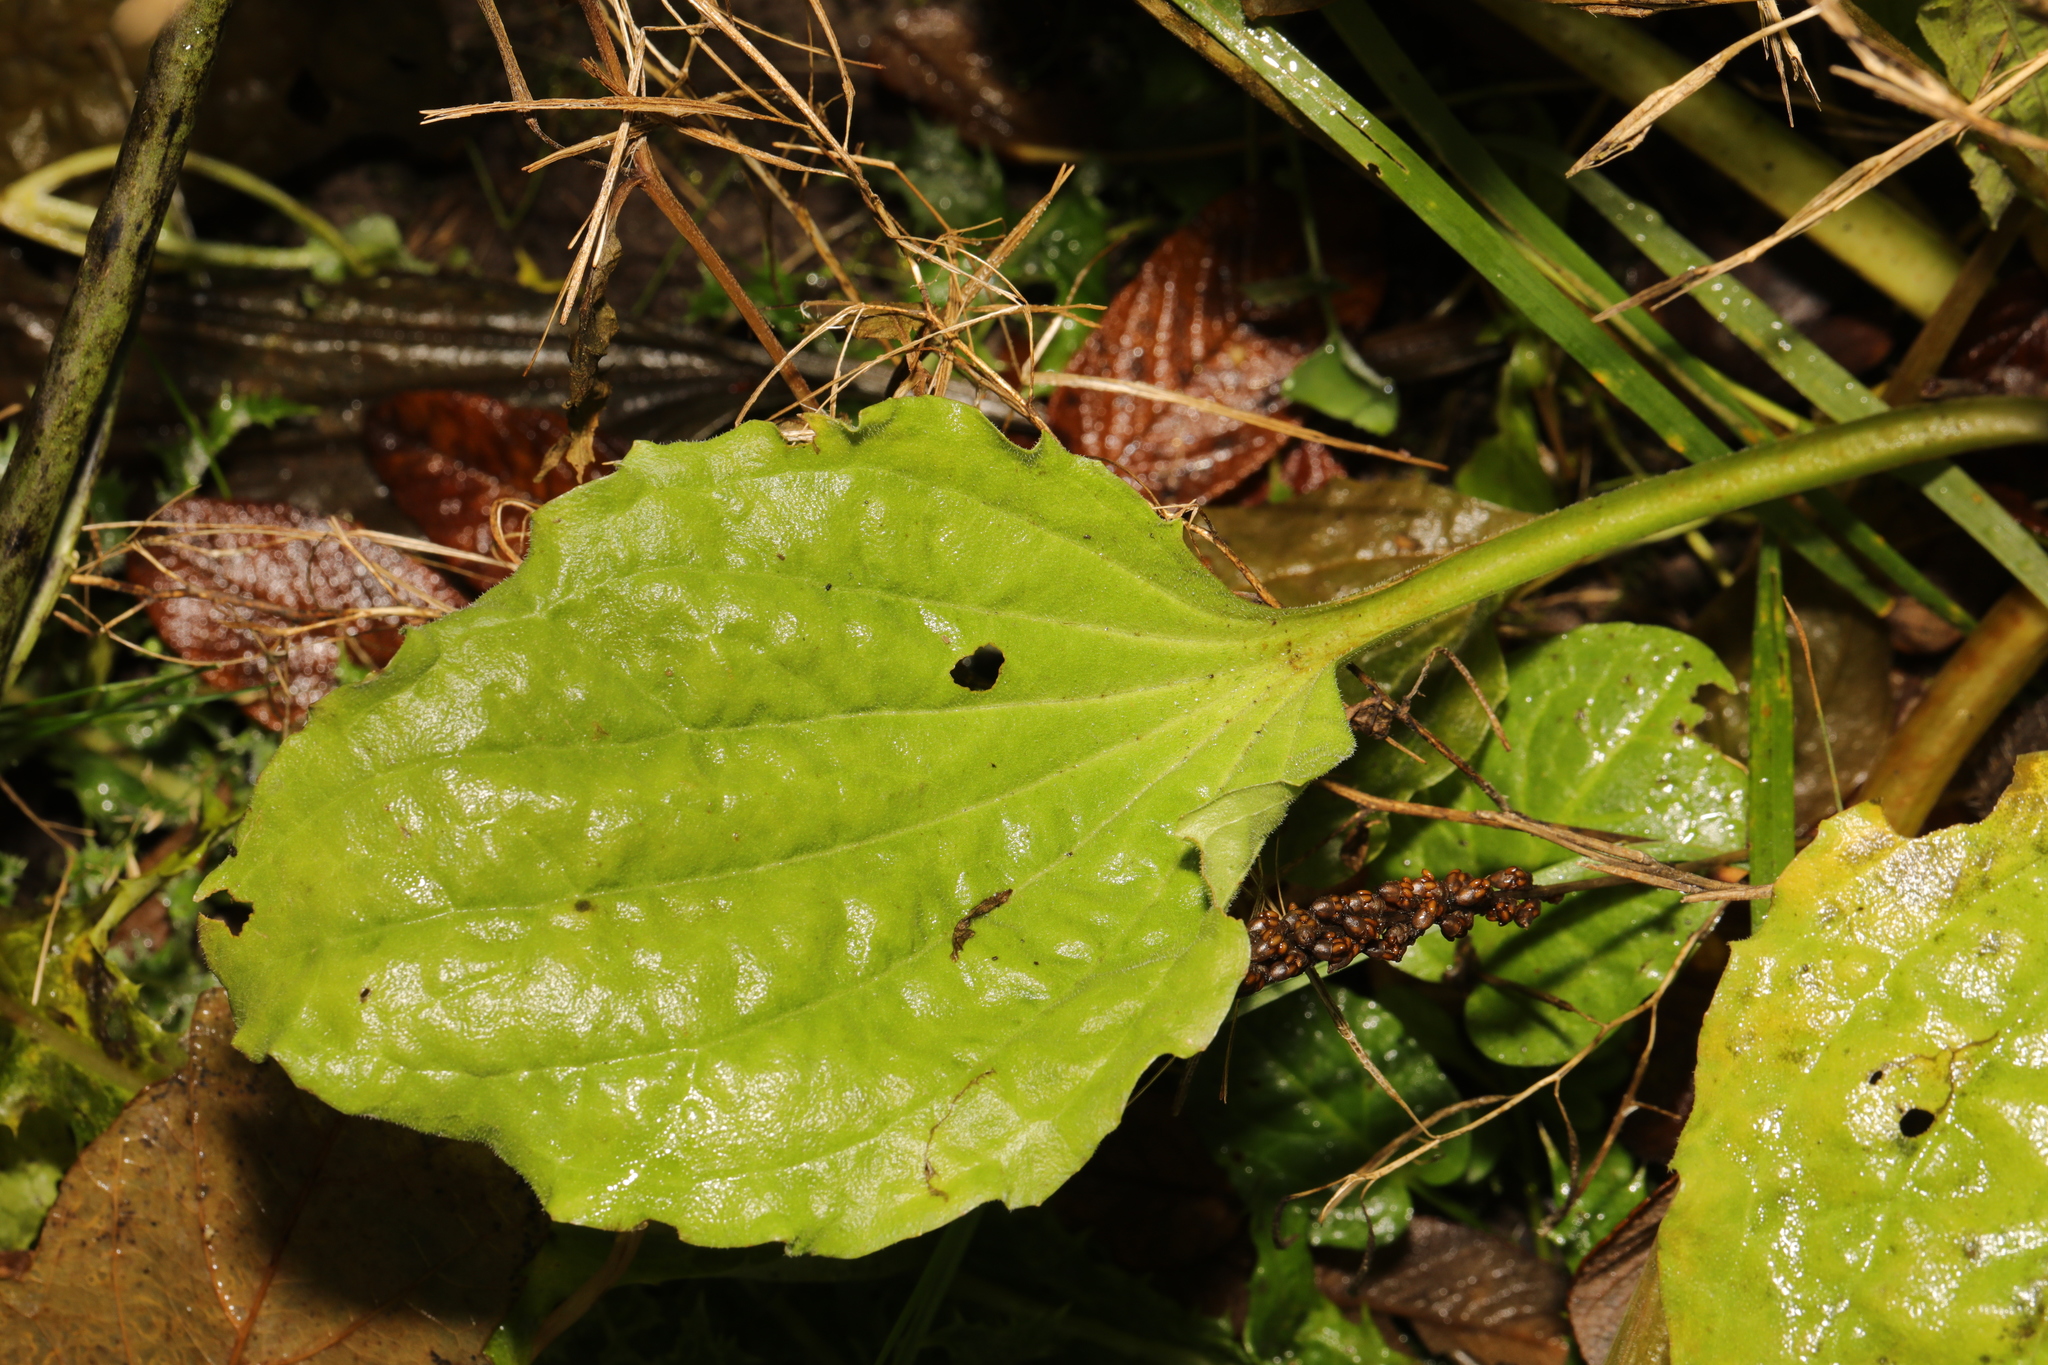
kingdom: Plantae
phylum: Tracheophyta
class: Magnoliopsida
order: Lamiales
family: Plantaginaceae
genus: Plantago
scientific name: Plantago major
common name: Common plantain
